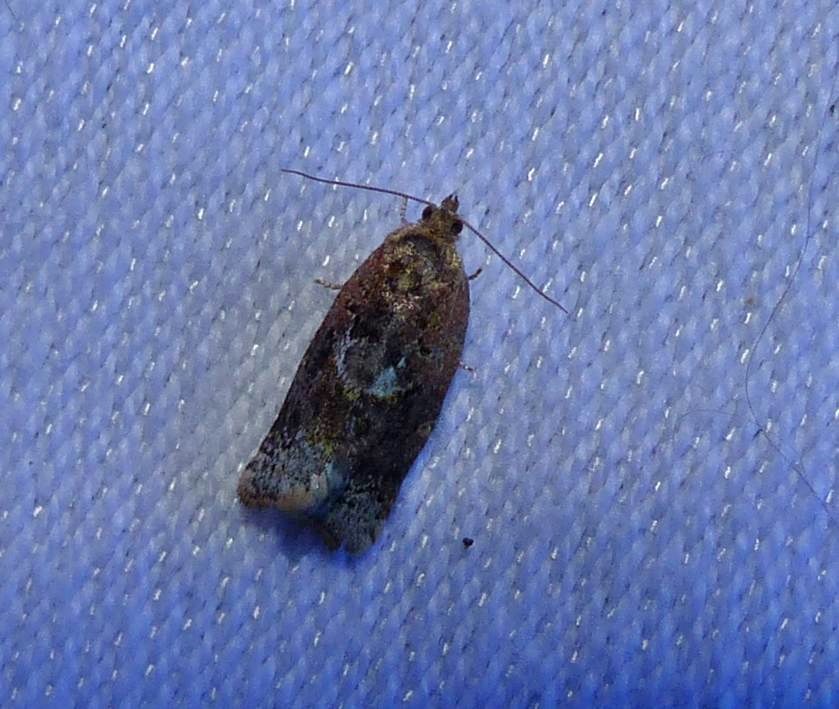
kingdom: Animalia
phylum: Arthropoda
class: Insecta
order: Lepidoptera
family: Tortricidae
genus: Argyrotaenia
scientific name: Argyrotaenia velutinana
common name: Red-banded leafroller moth
